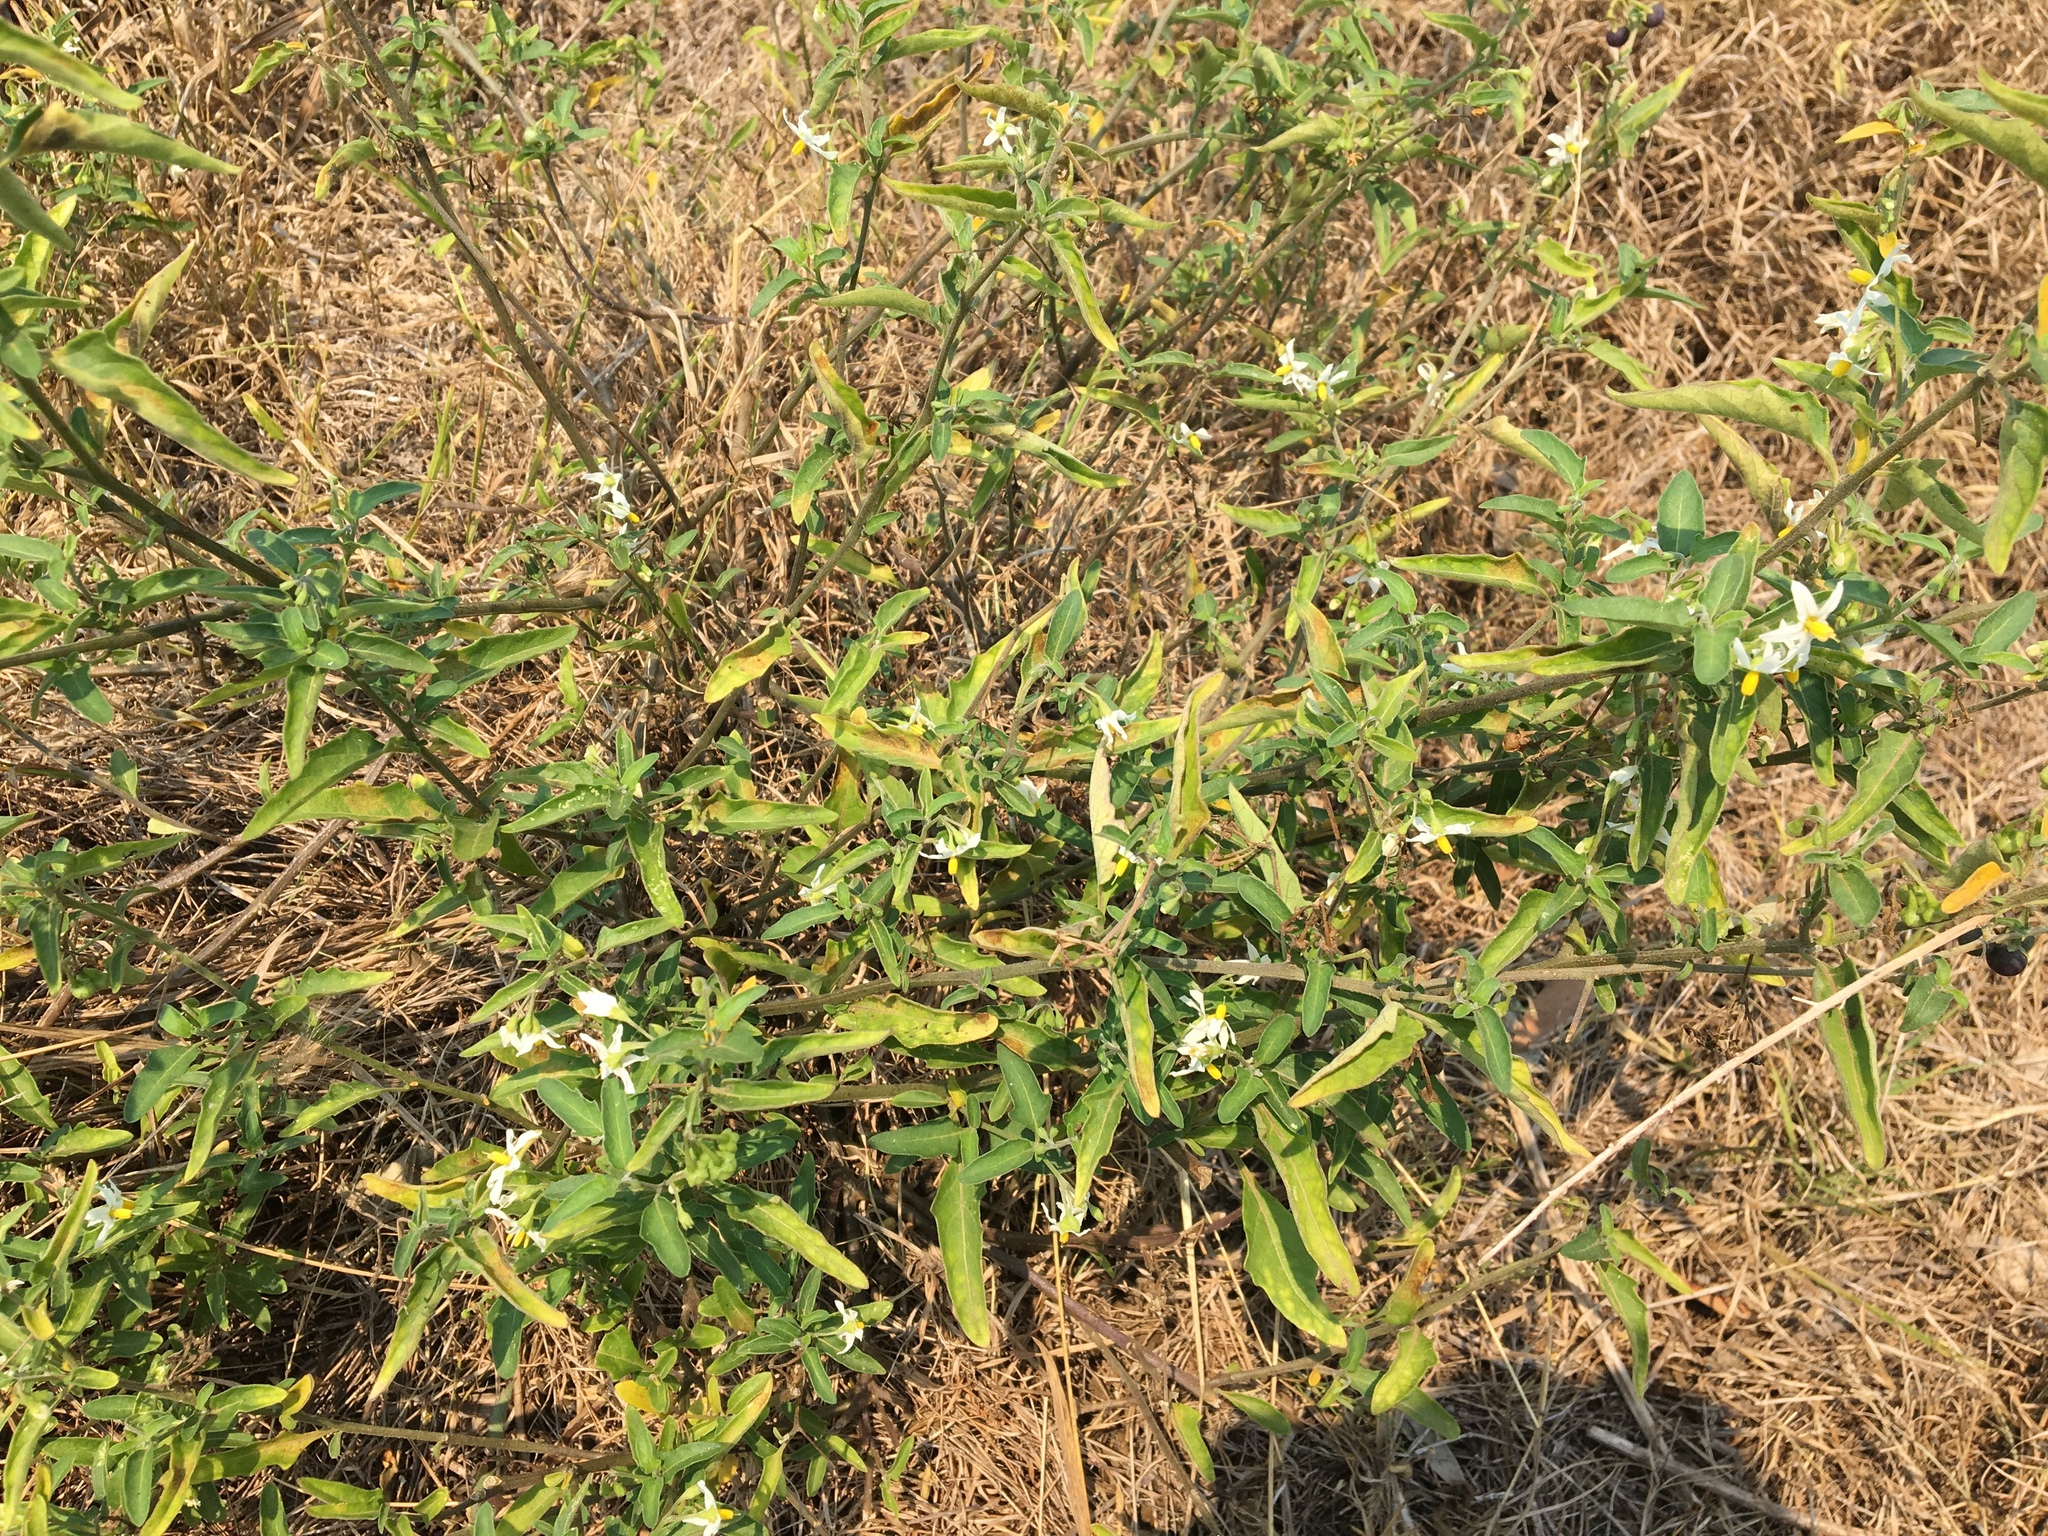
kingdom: Plantae
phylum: Tracheophyta
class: Magnoliopsida
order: Solanales
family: Solanaceae
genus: Solanum
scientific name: Solanum chenopodioides
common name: Tall nightshade
